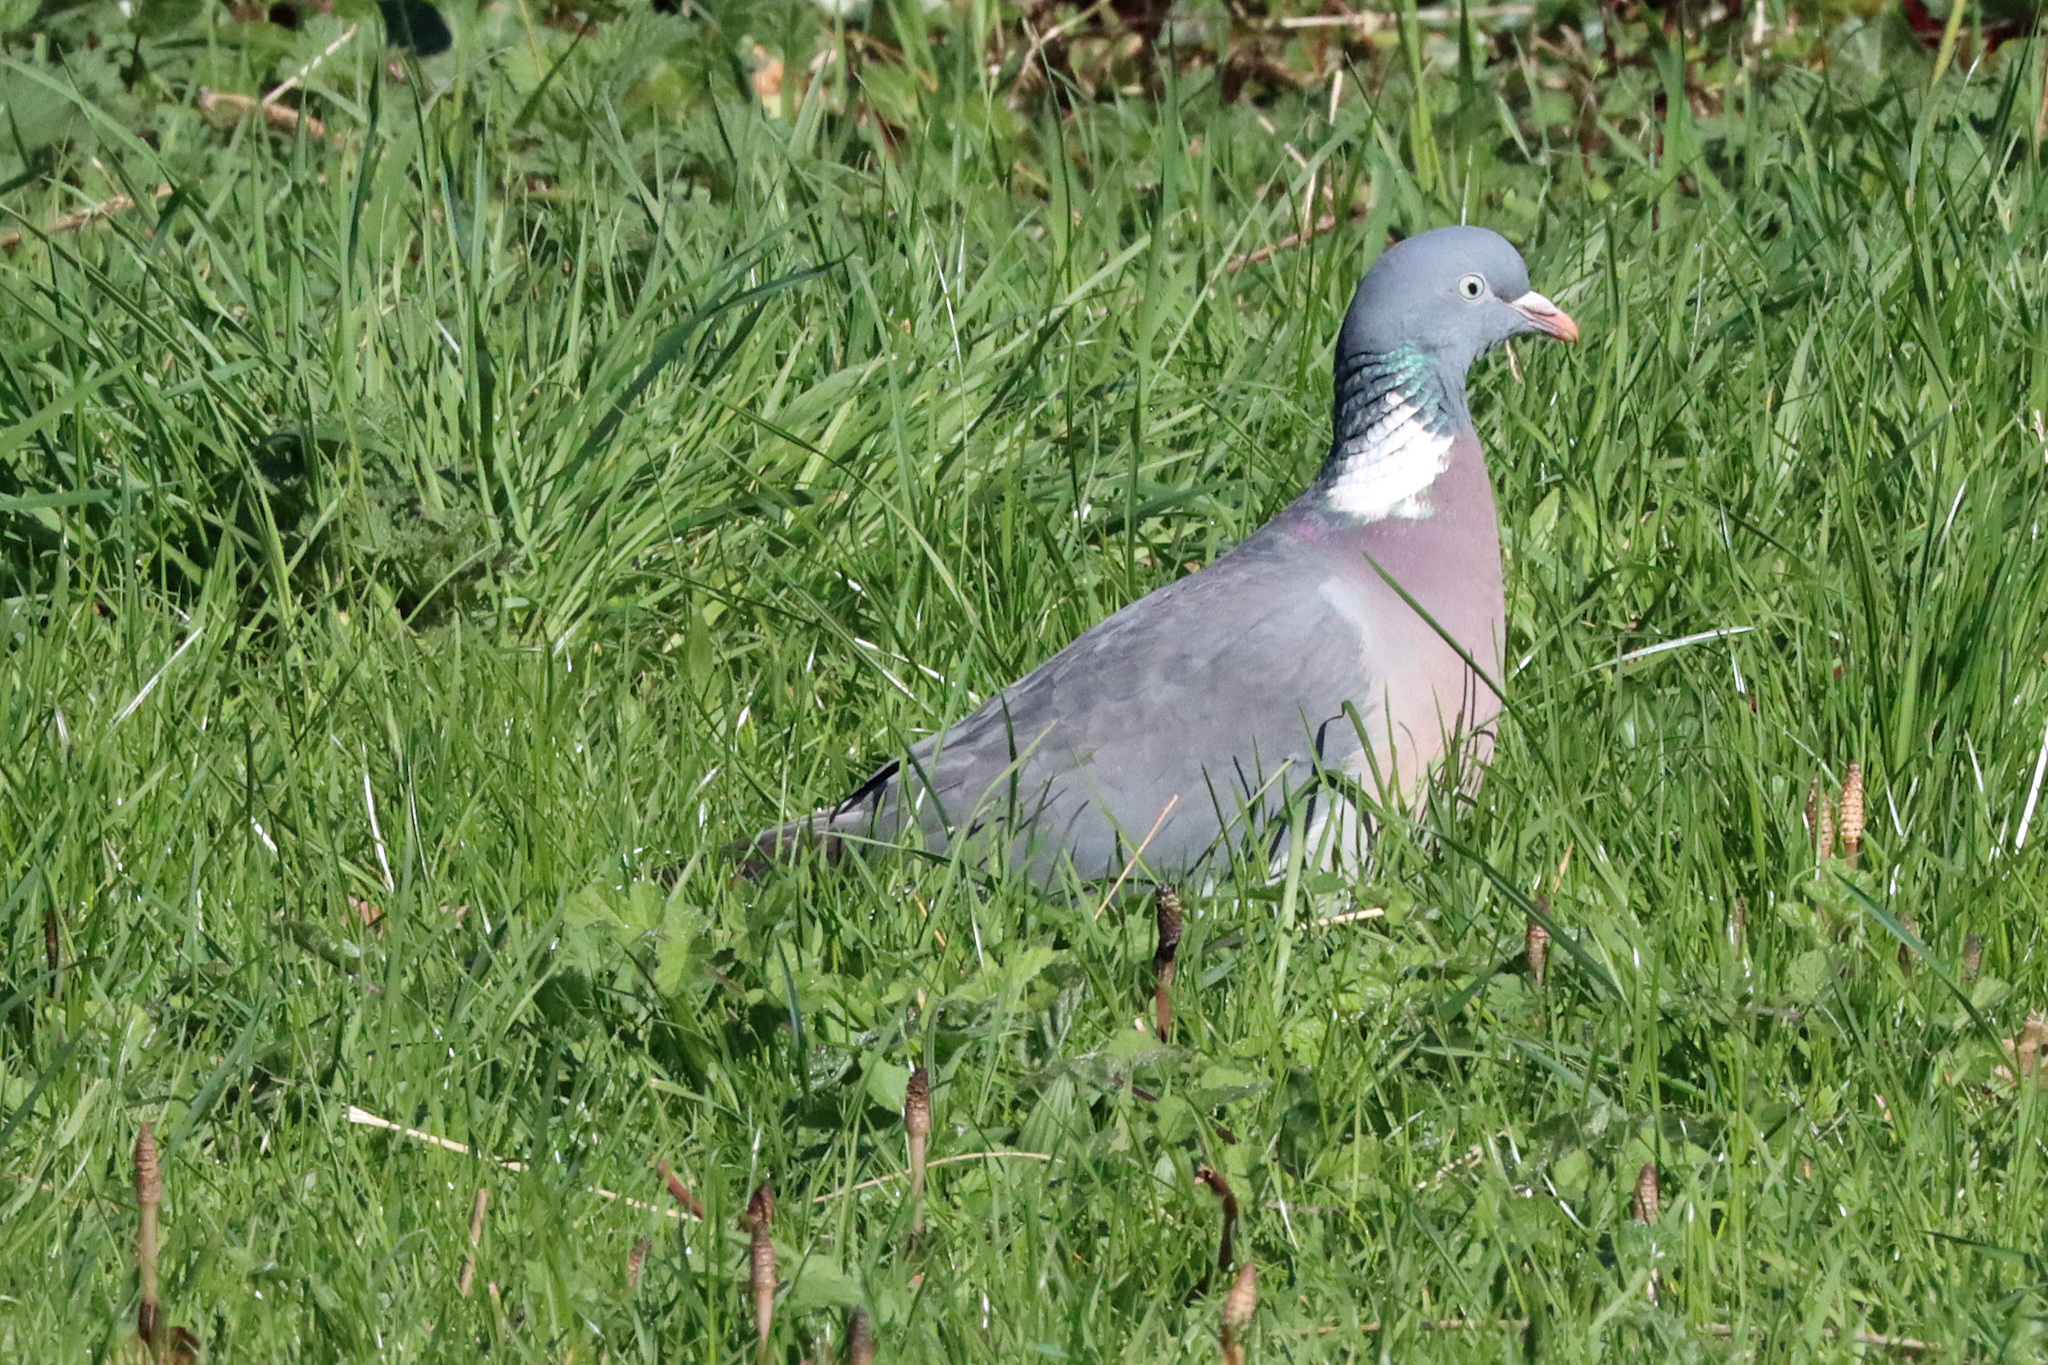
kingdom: Animalia
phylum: Chordata
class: Aves
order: Columbiformes
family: Columbidae
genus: Columba
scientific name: Columba palumbus
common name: Common wood pigeon
